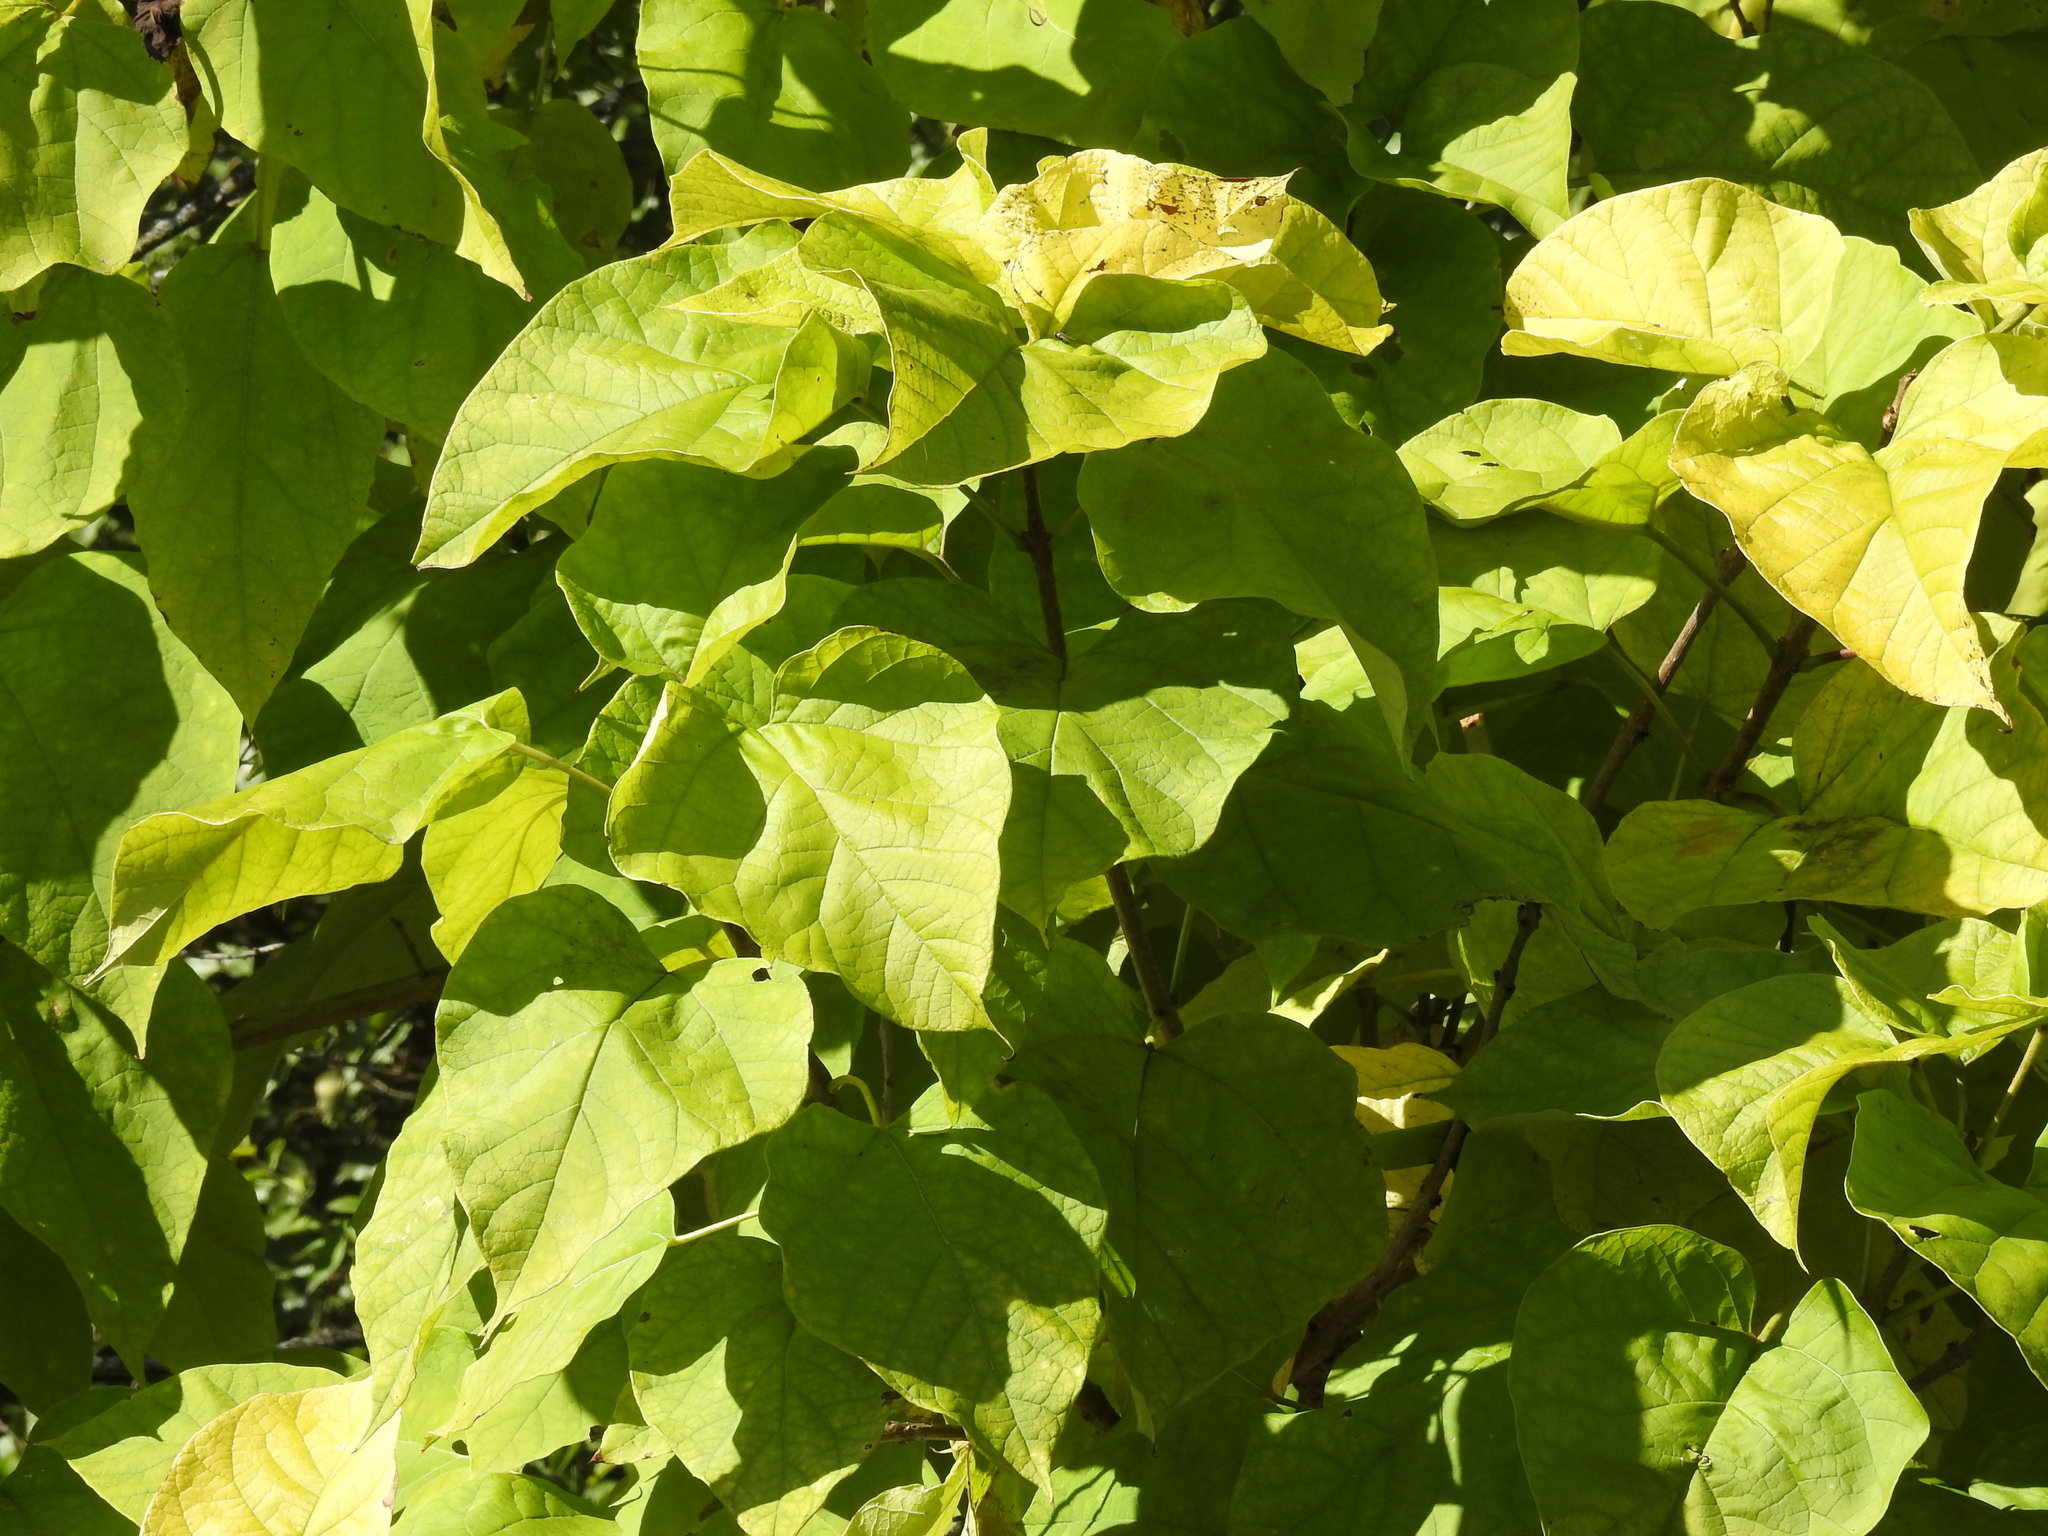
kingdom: Plantae
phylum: Tracheophyta
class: Magnoliopsida
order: Lamiales
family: Bignoniaceae
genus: Catalpa
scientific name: Catalpa speciosa
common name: Northern catalpa
